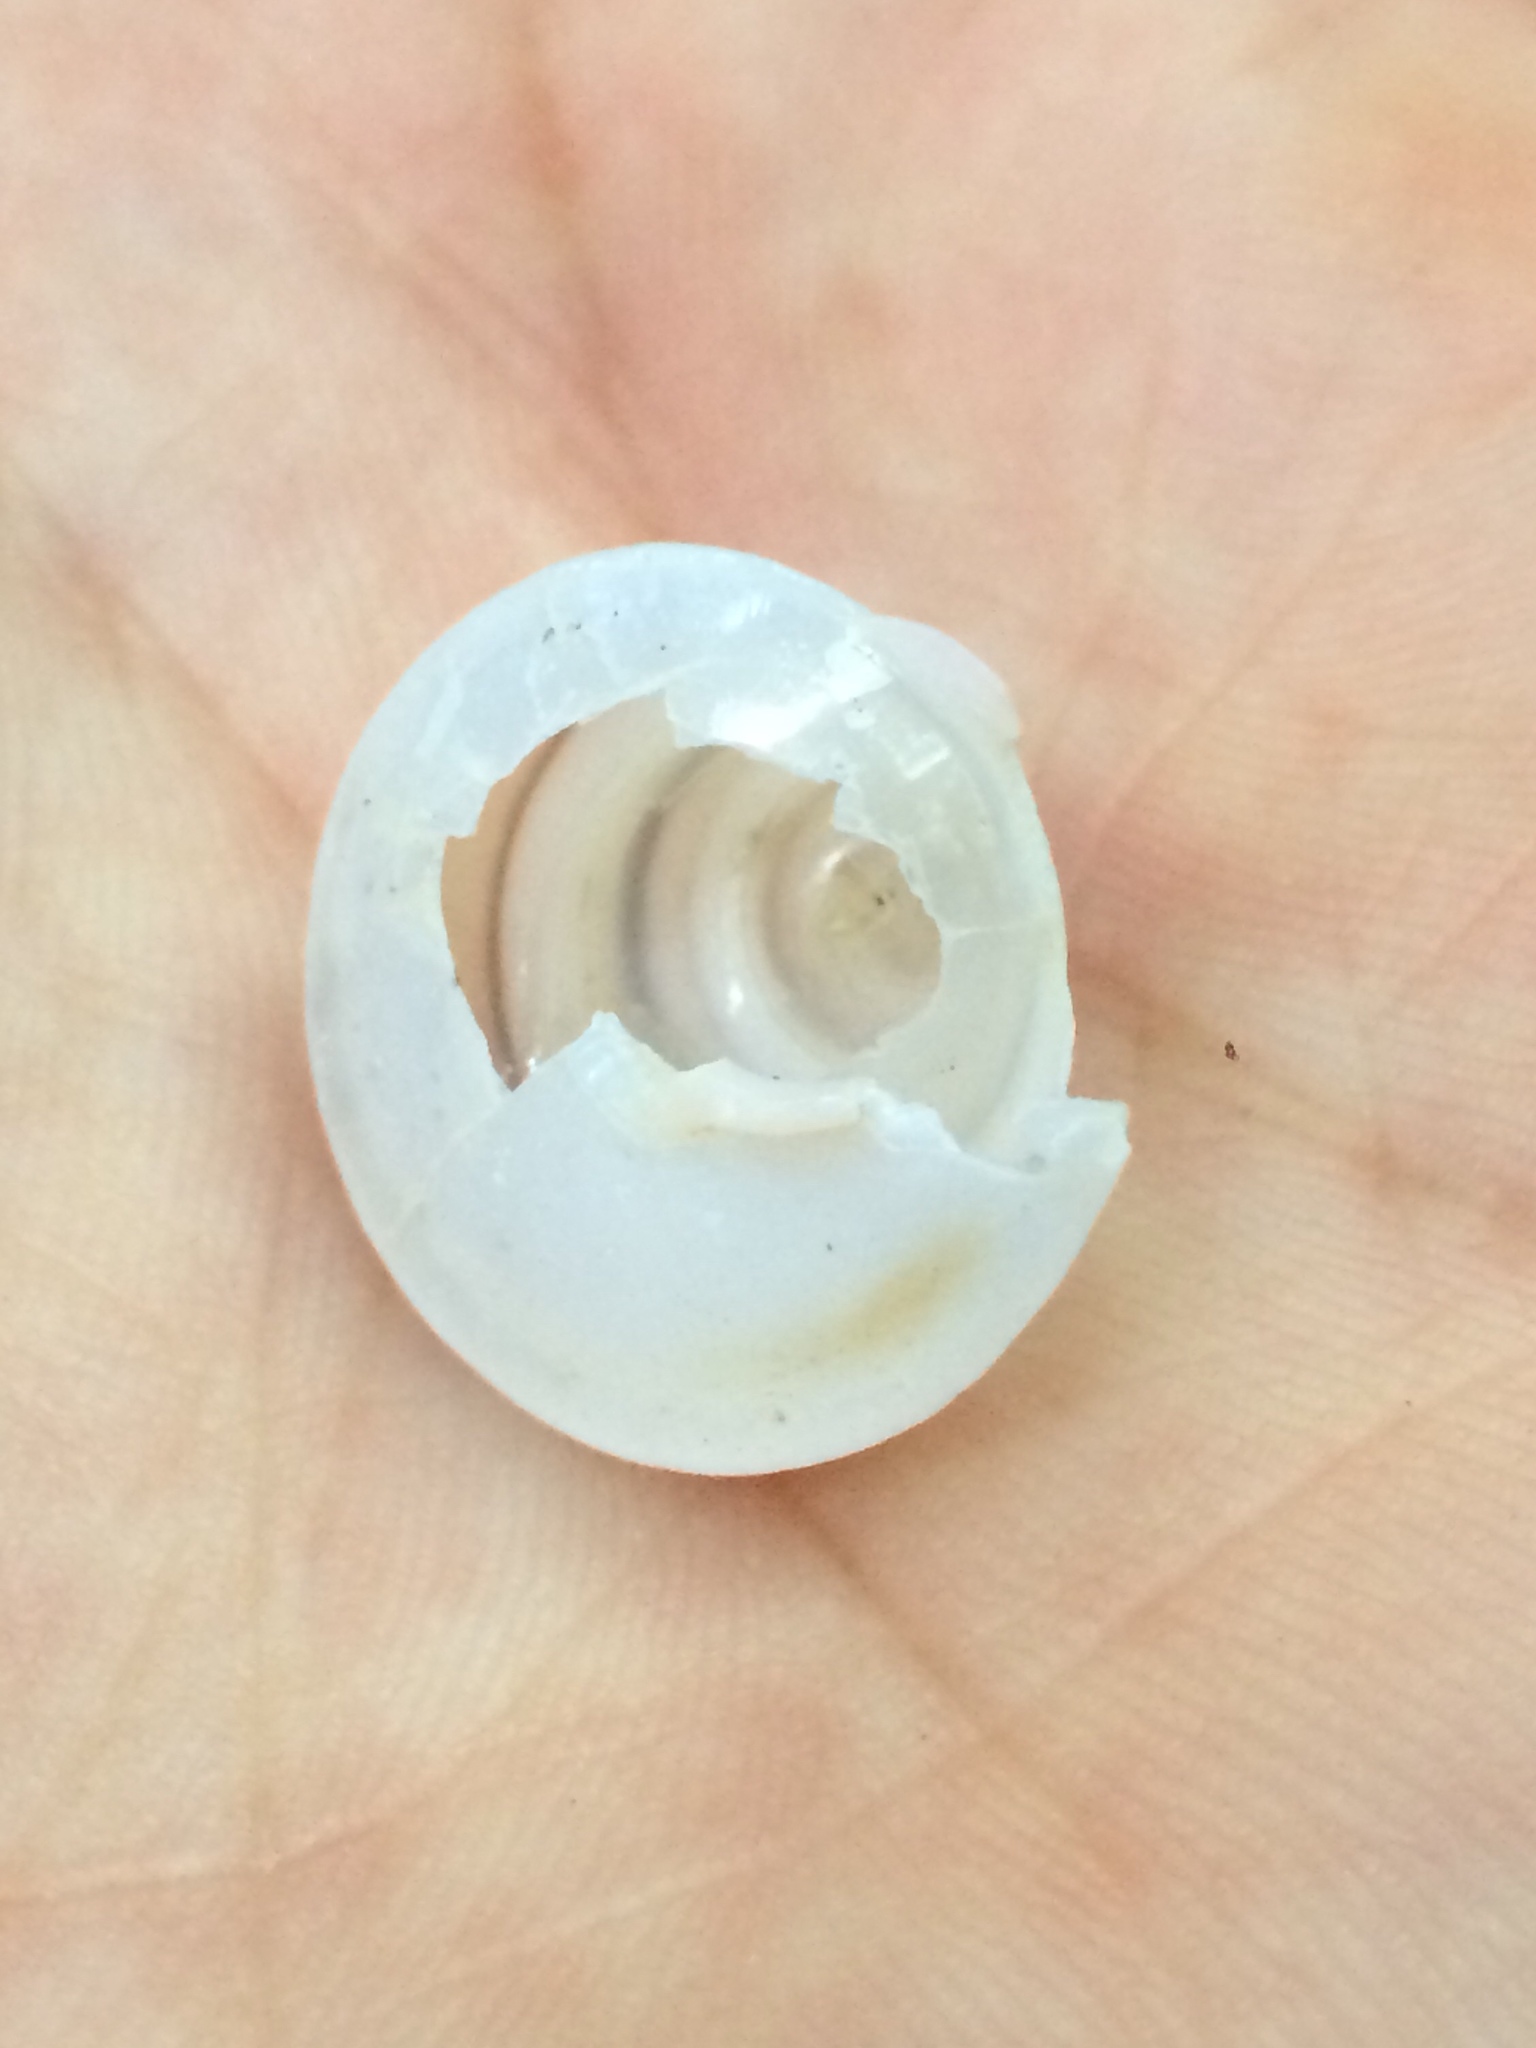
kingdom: Animalia
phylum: Mollusca
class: Gastropoda
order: Stylommatophora
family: Bulimulidae
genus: Oxychona
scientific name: Oxychona bifasciata
